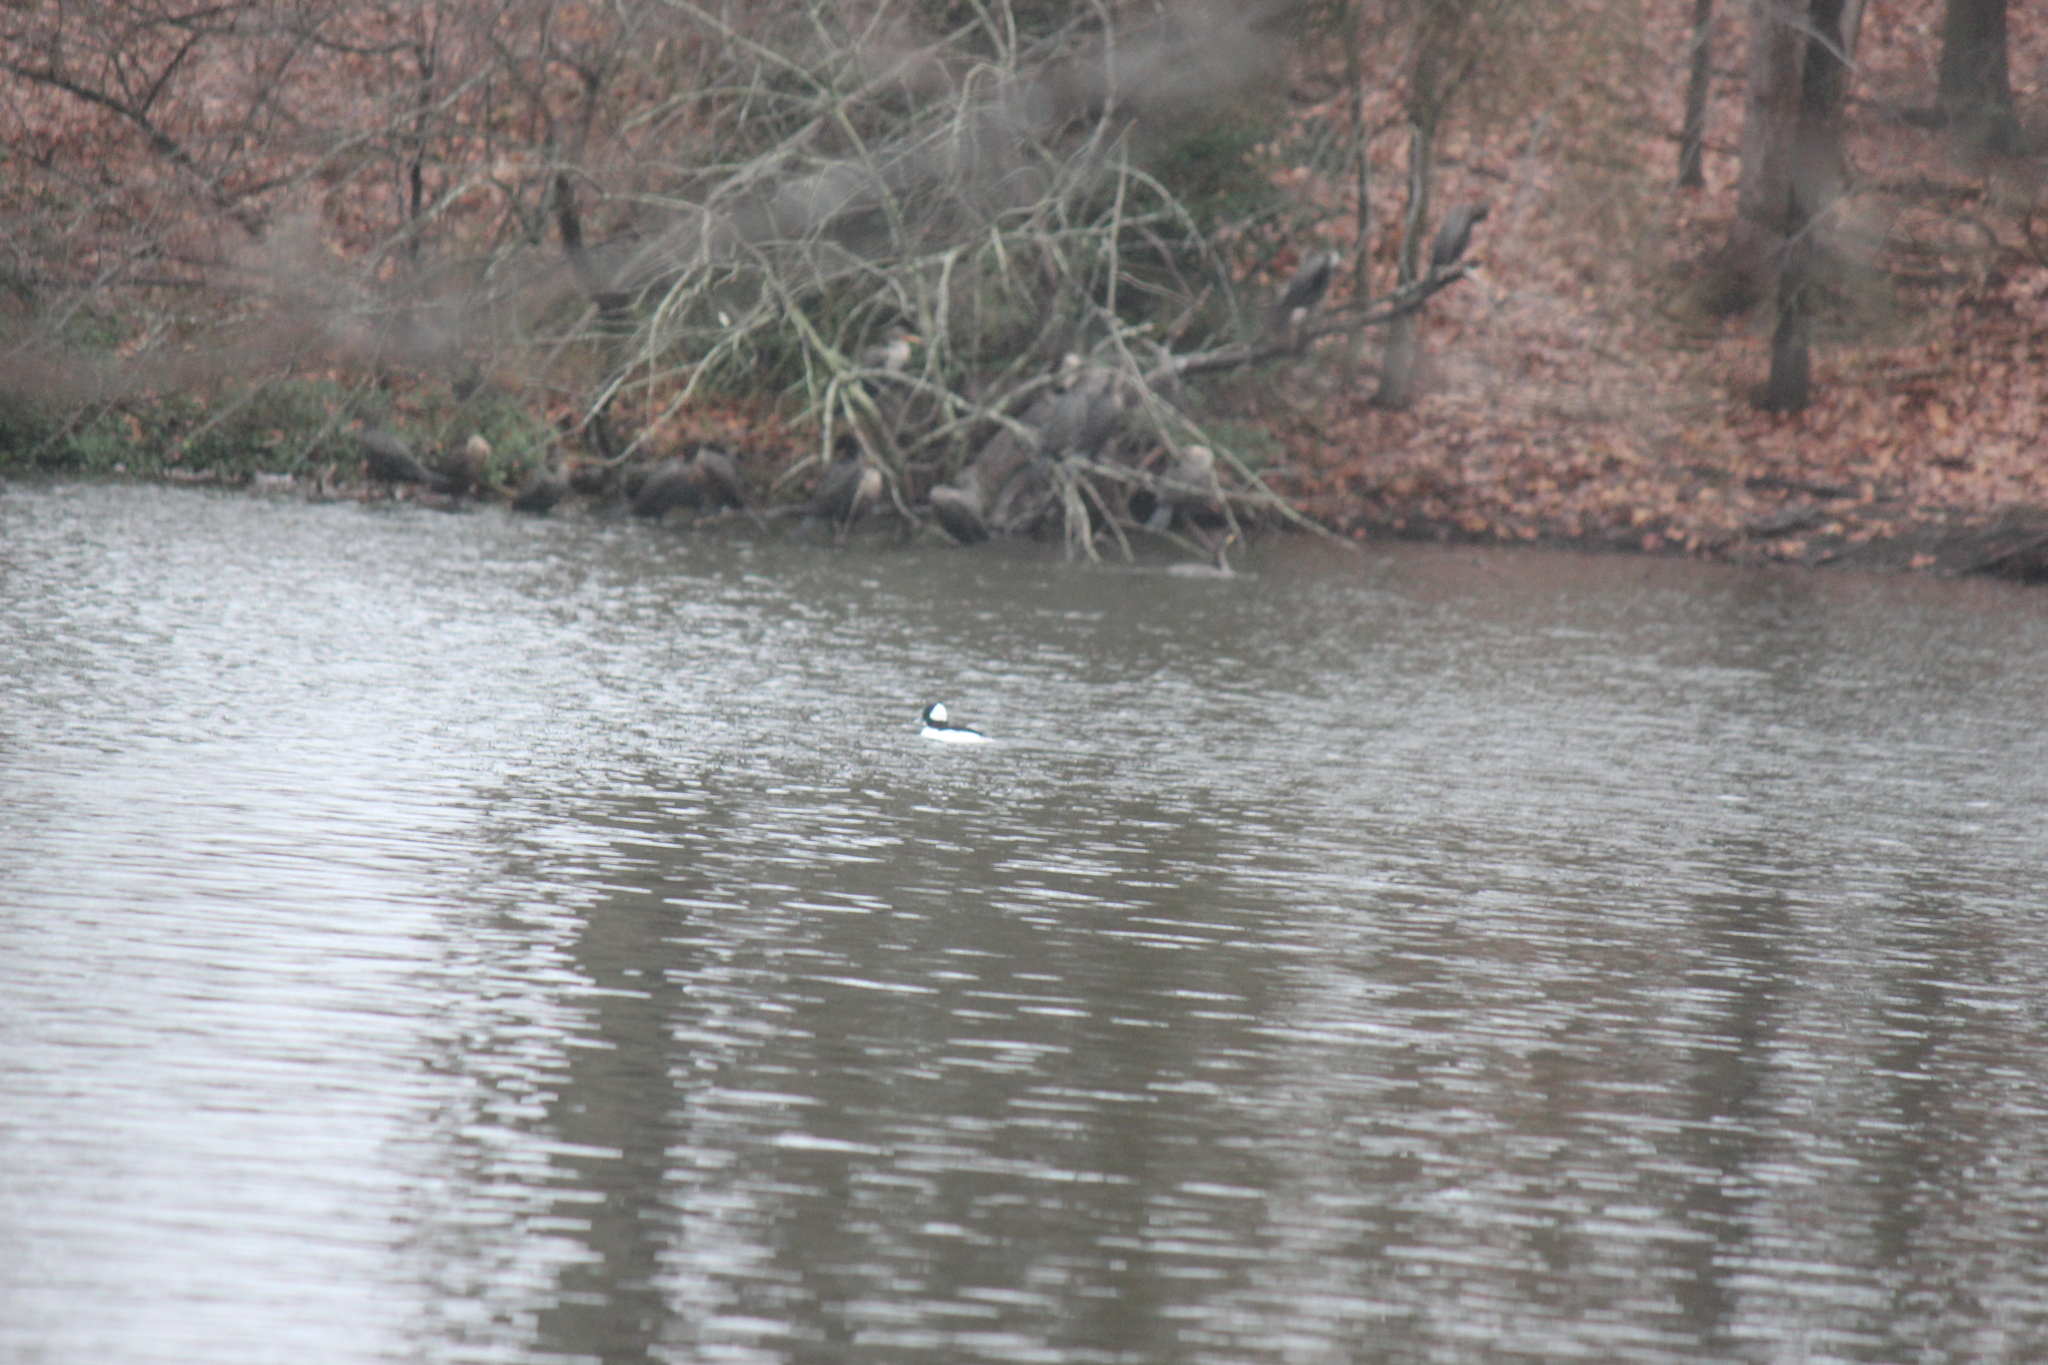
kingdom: Animalia
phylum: Chordata
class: Aves
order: Anseriformes
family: Anatidae
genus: Bucephala
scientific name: Bucephala albeola
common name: Bufflehead
